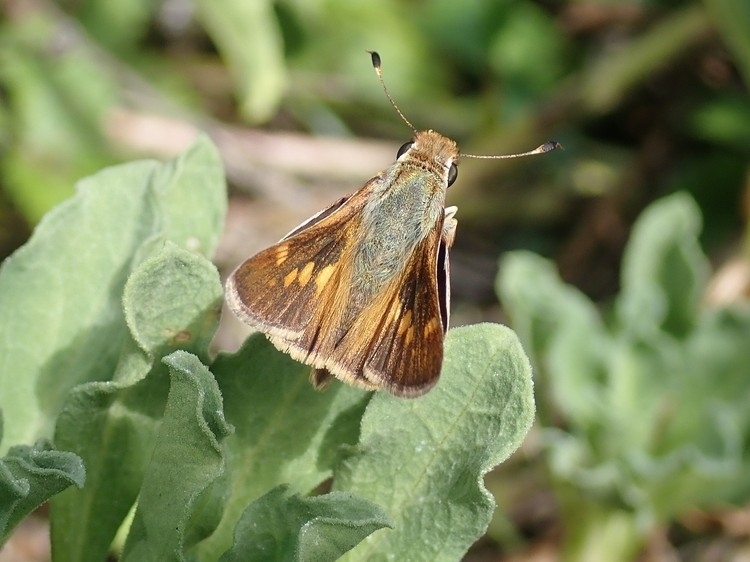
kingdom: Animalia
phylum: Arthropoda
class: Insecta
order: Lepidoptera
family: Hesperiidae
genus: Lon
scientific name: Lon melane
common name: Umber skipper
